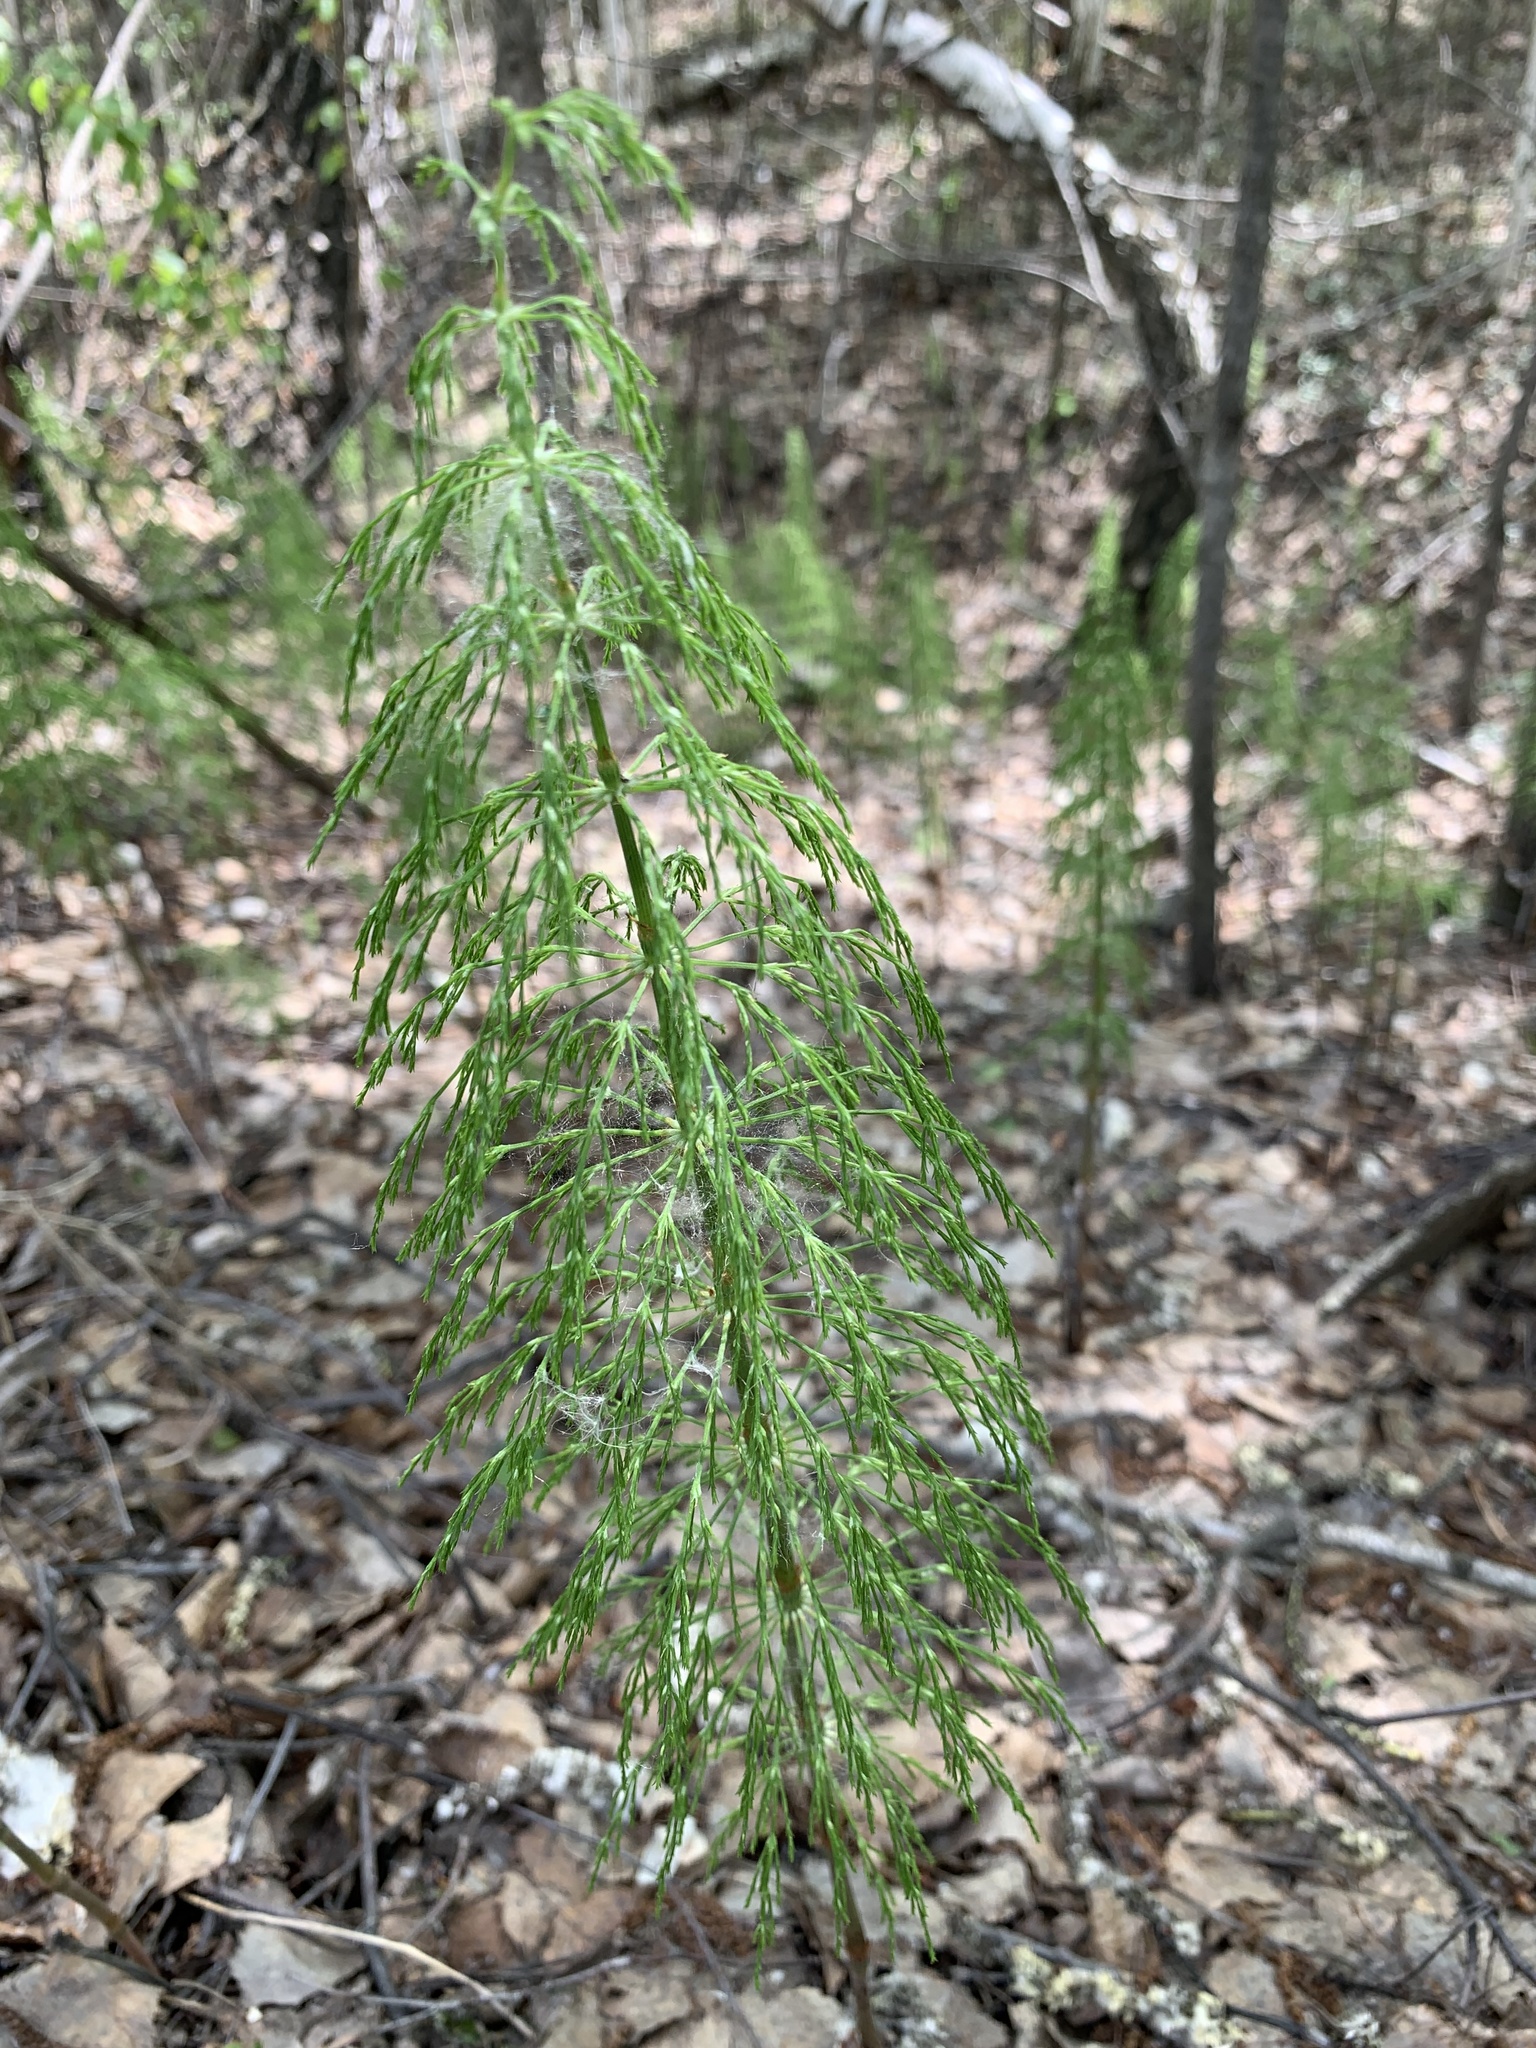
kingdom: Plantae
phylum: Tracheophyta
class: Polypodiopsida
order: Equisetales
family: Equisetaceae
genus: Equisetum
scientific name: Equisetum sylvaticum
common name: Wood horsetail
